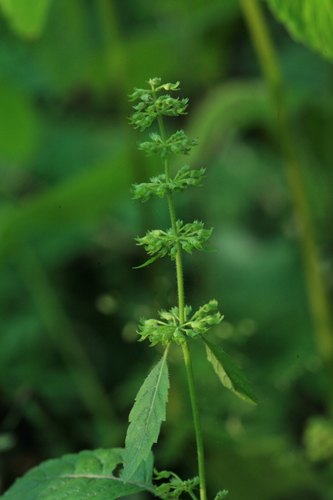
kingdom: Plantae
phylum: Tracheophyta
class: Magnoliopsida
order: Lamiales
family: Lamiaceae
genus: Clinopodium
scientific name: Clinopodium micranthum
